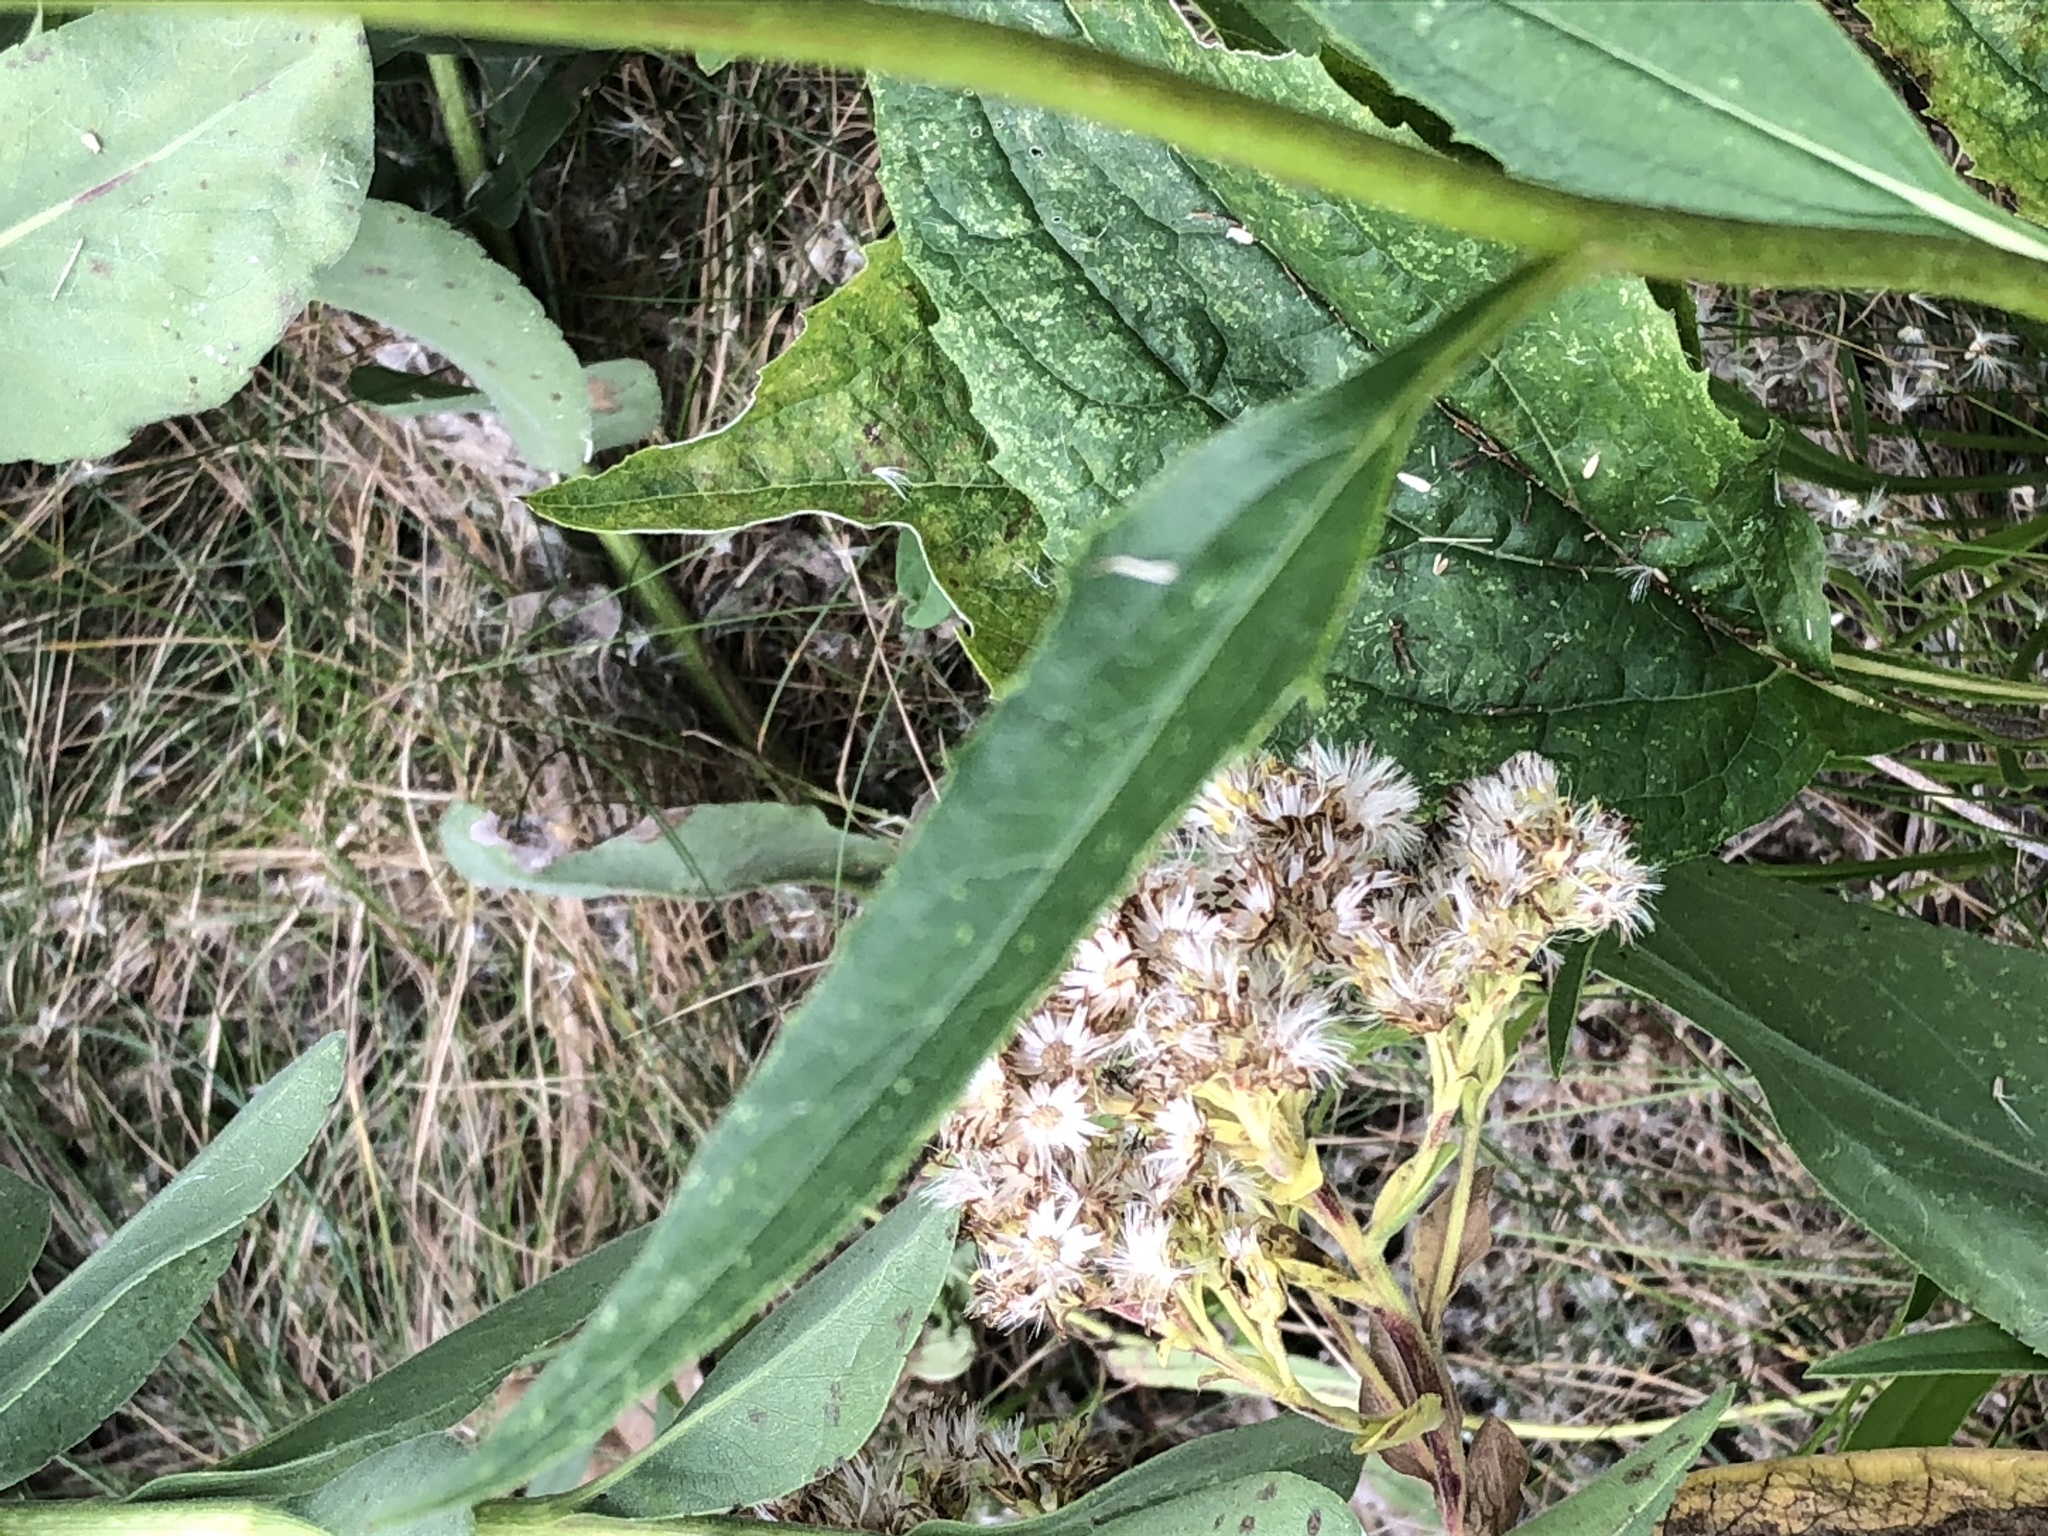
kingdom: Plantae
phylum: Tracheophyta
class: Magnoliopsida
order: Asterales
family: Asteraceae
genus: Echinacea
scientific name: Echinacea purpurea
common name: Broad-leaved purple coneflower
